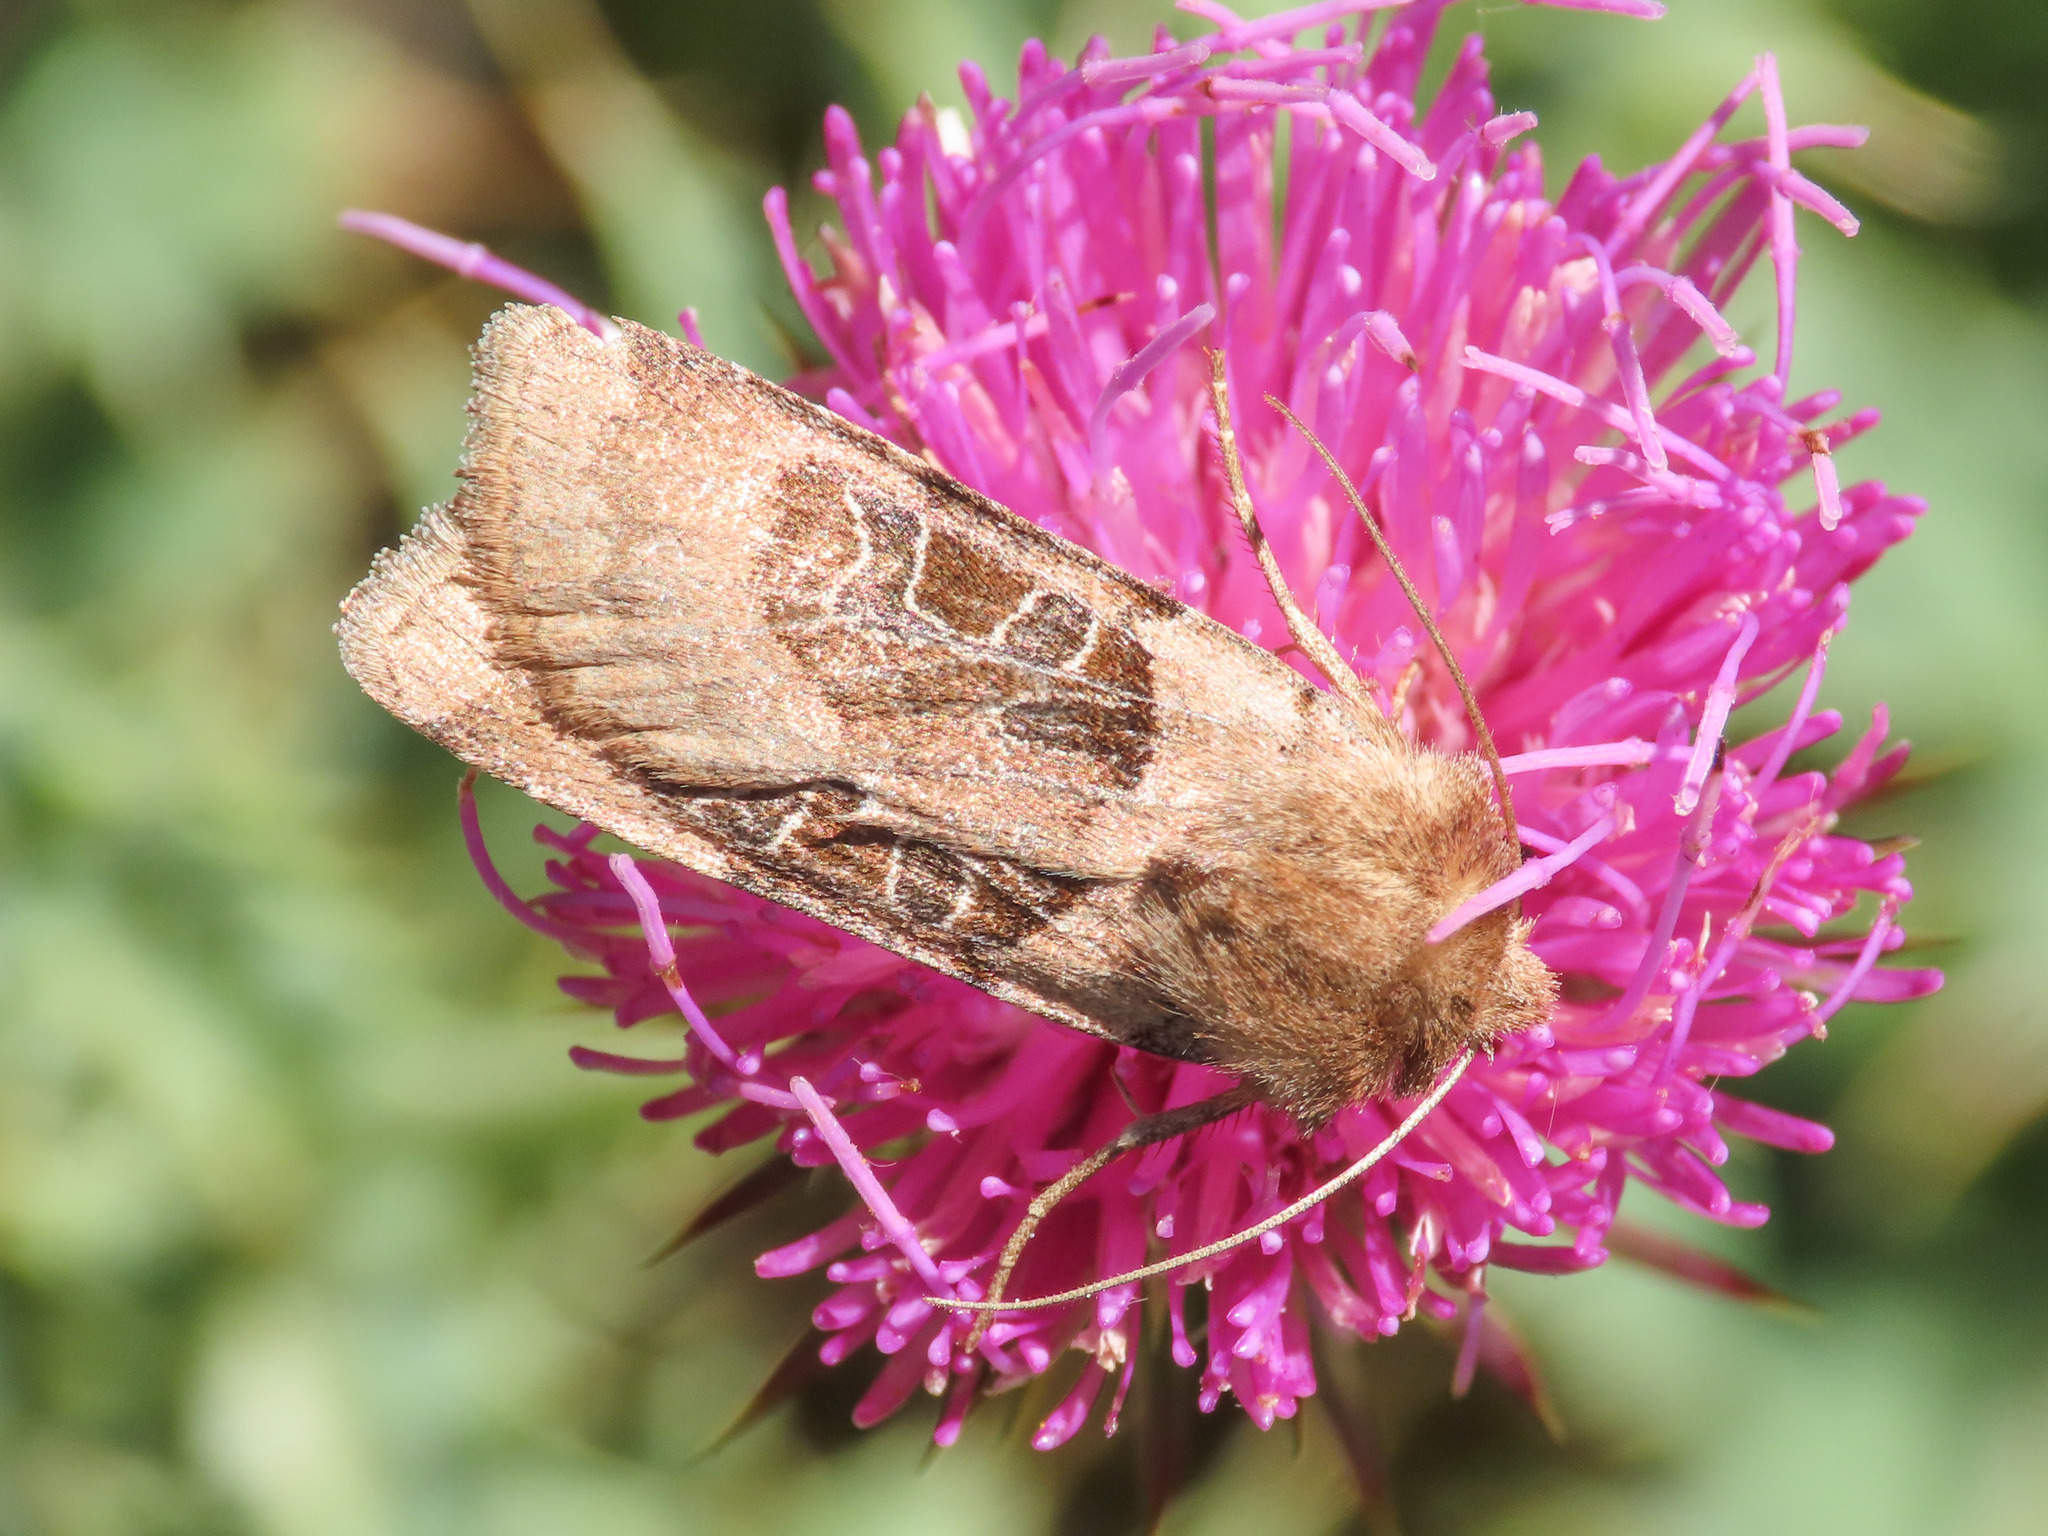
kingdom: Animalia
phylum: Arthropoda
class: Insecta
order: Lepidoptera
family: Noctuidae
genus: Chersotis
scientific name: Chersotis cuprea
